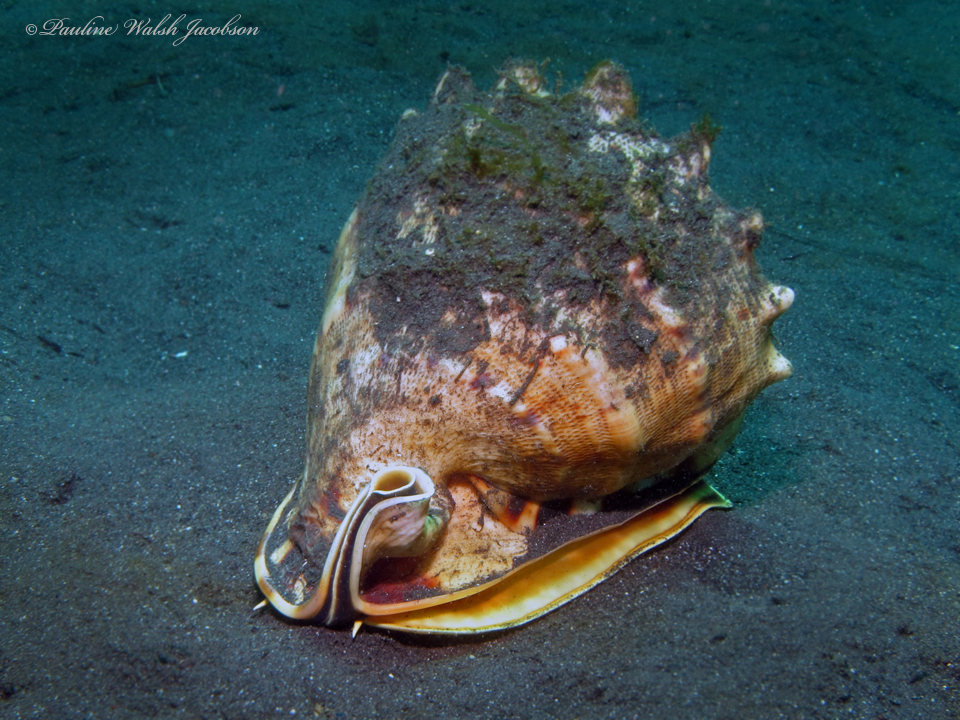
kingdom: Animalia
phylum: Mollusca
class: Gastropoda
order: Littorinimorpha
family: Cassidae
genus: Cassis
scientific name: Cassis cornuta
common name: Giant helmet
